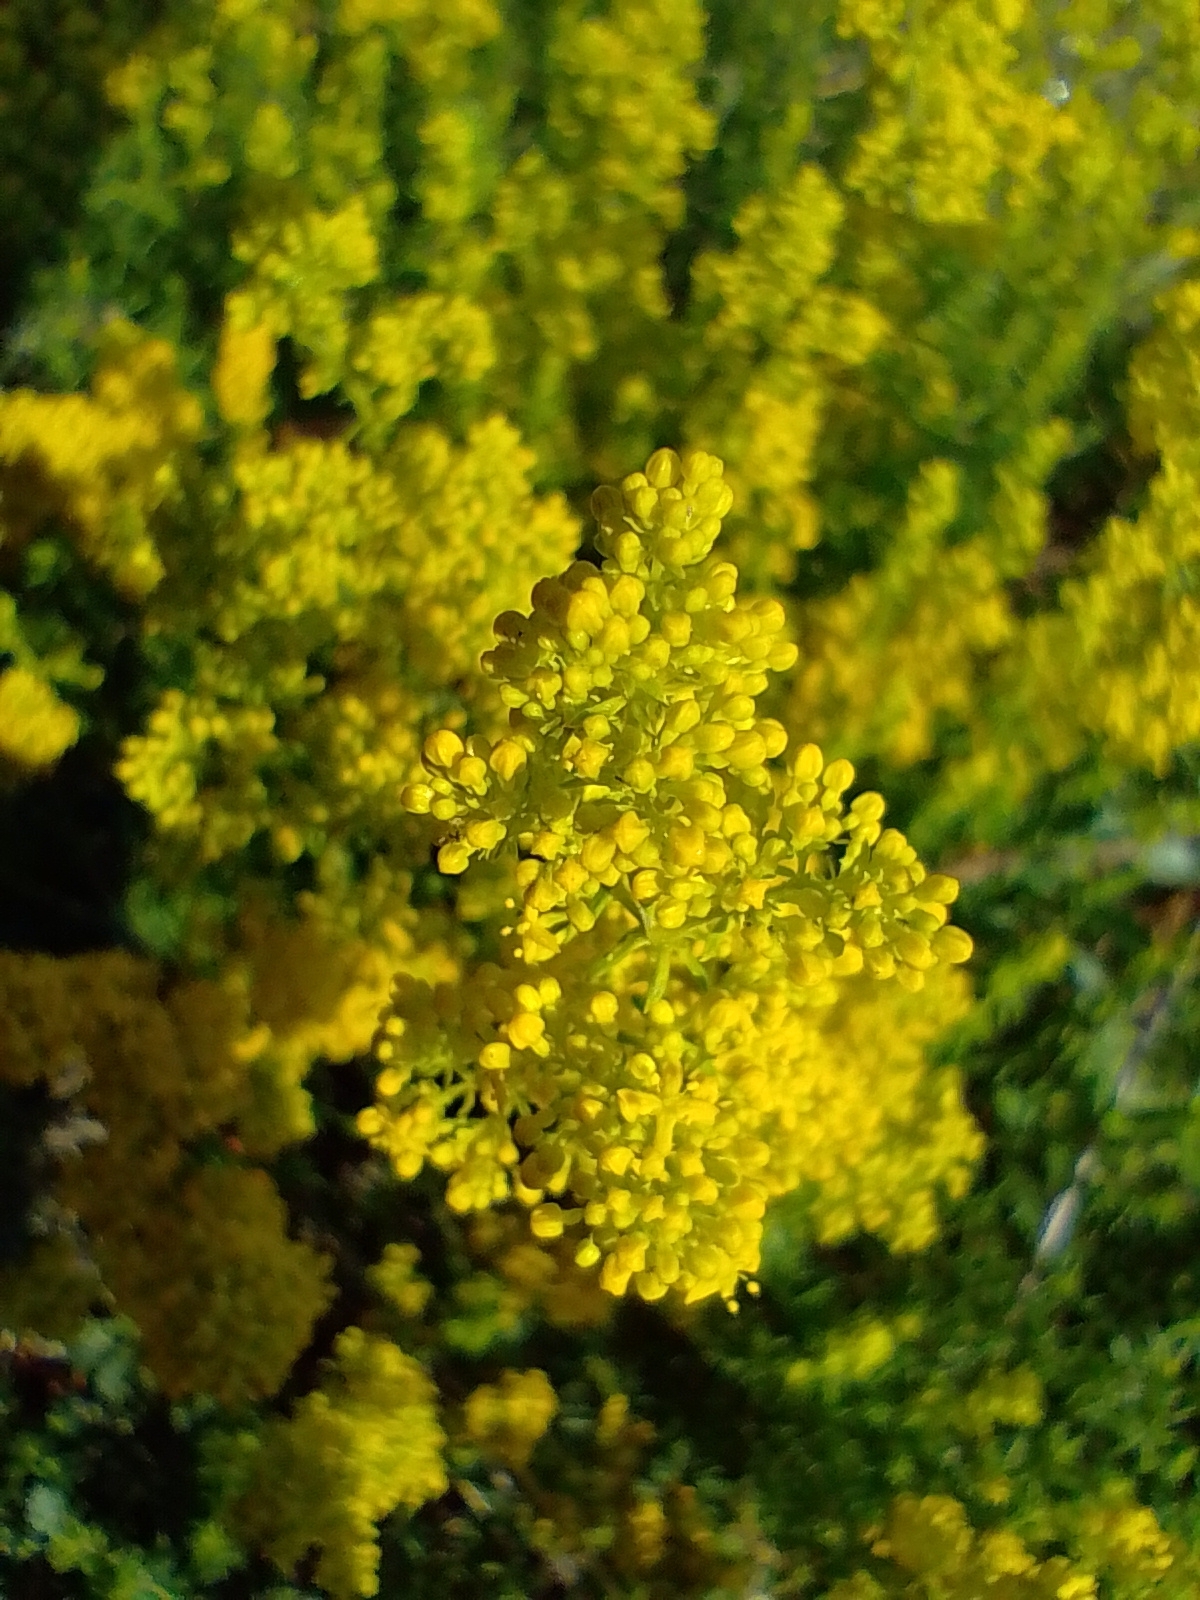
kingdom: Plantae
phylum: Tracheophyta
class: Magnoliopsida
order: Gentianales
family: Rubiaceae
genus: Galium
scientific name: Galium verum
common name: Lady's bedstraw
